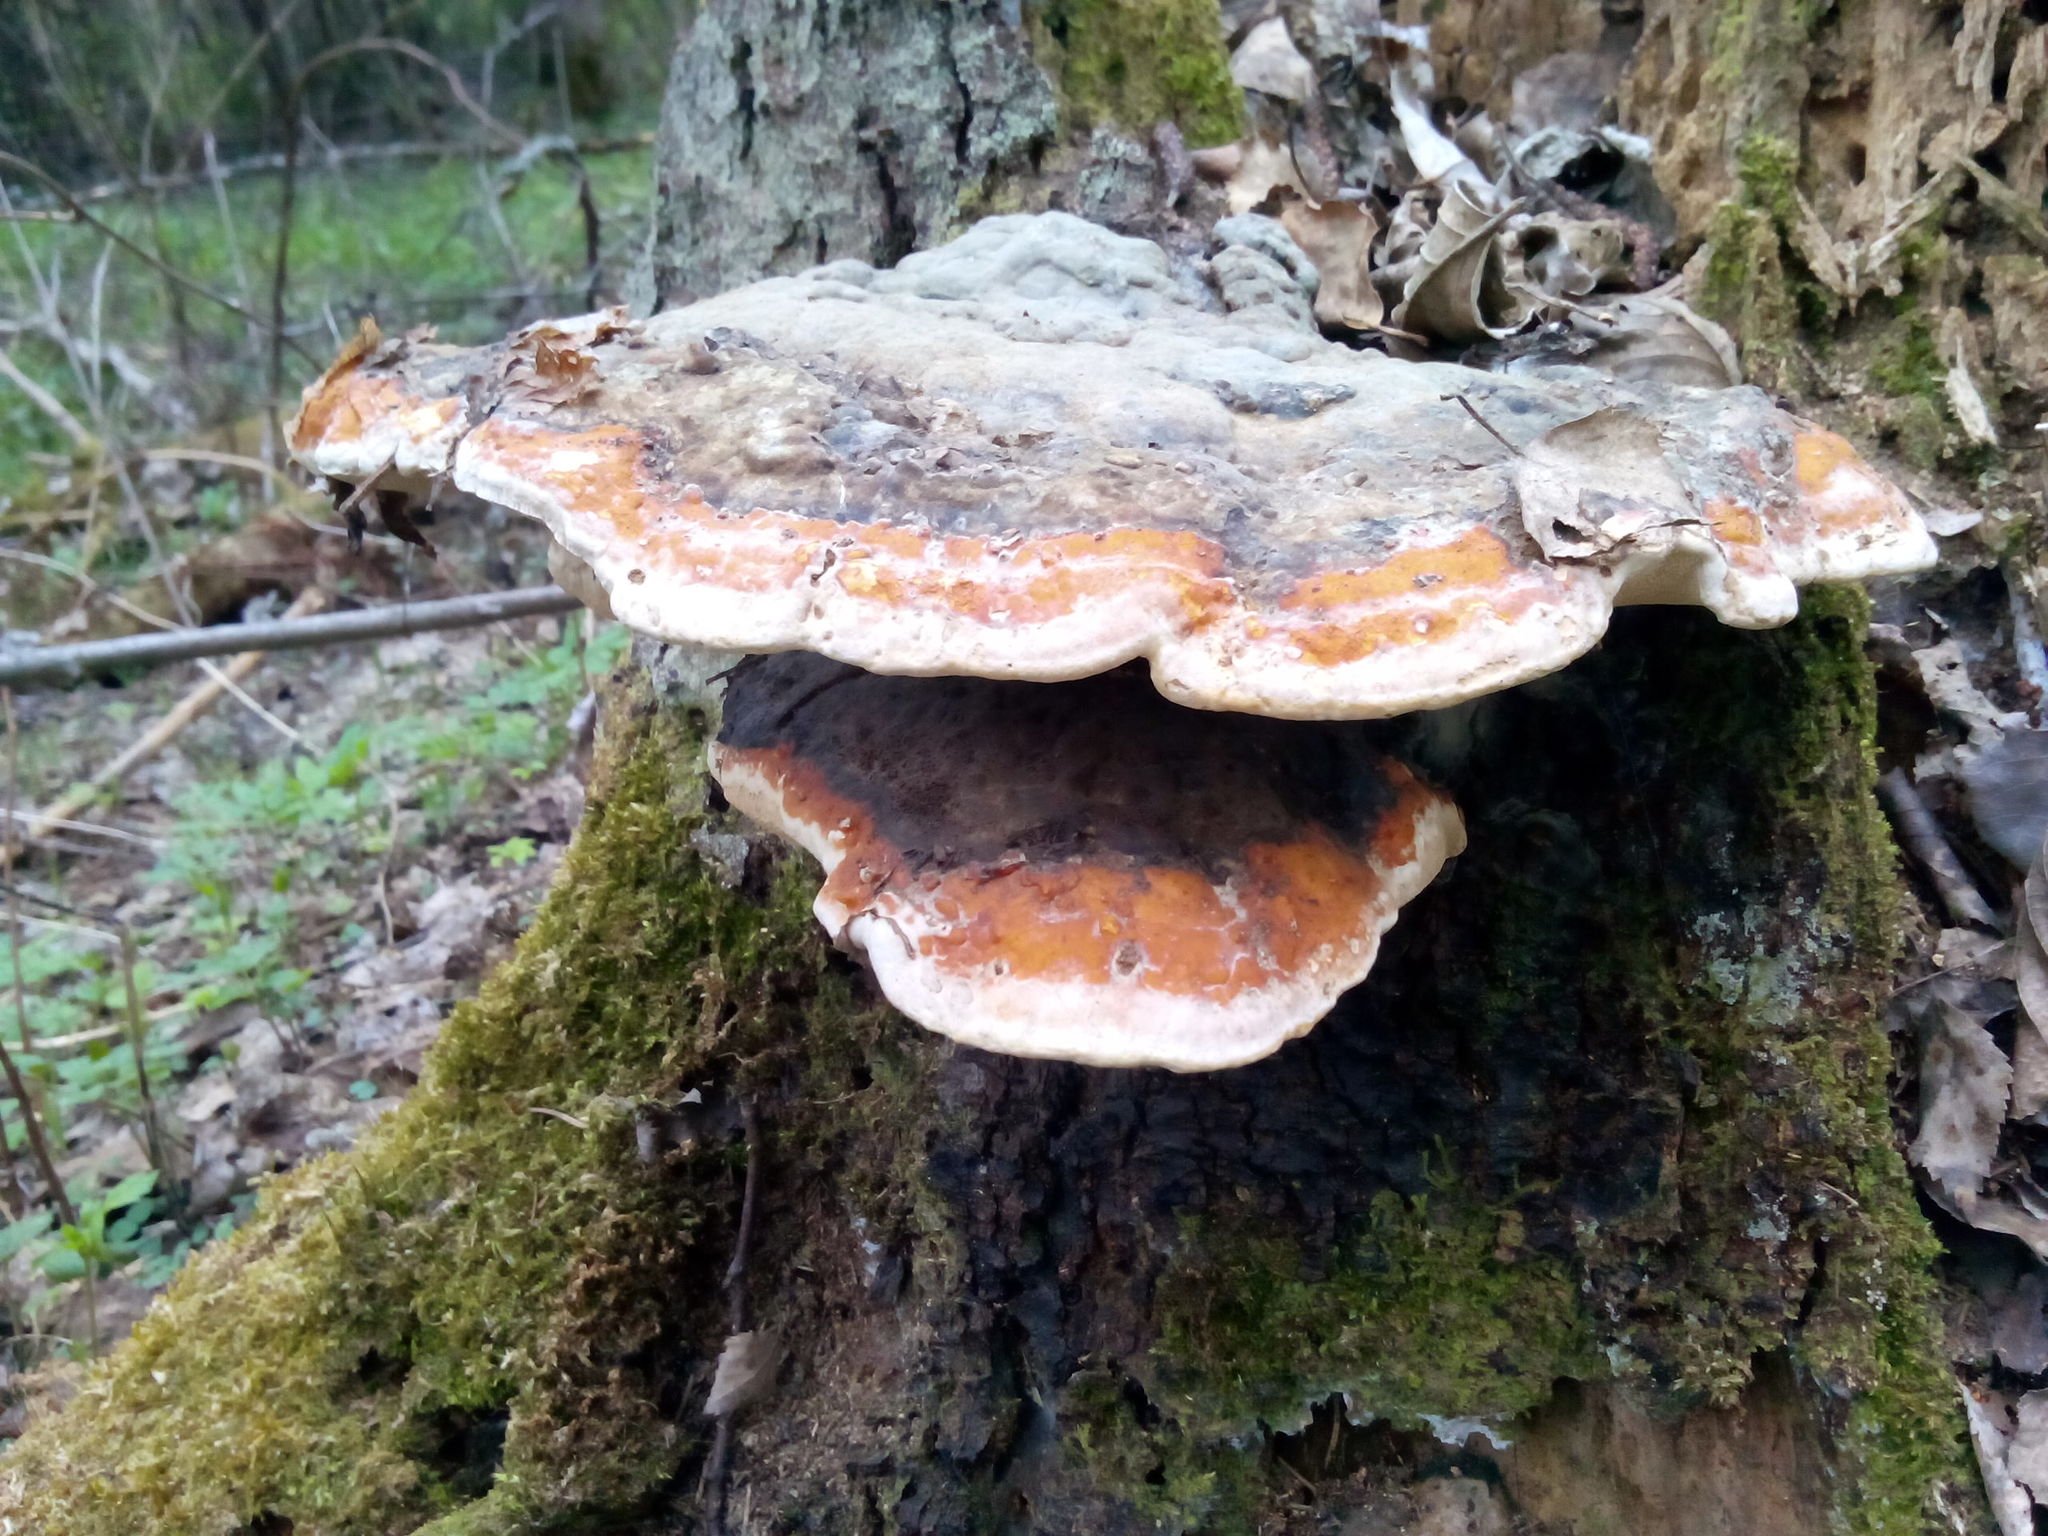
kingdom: Fungi
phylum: Basidiomycota
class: Agaricomycetes
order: Polyporales
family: Fomitopsidaceae
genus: Fomitopsis
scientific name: Fomitopsis pinicola
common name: Red-belted bracket
